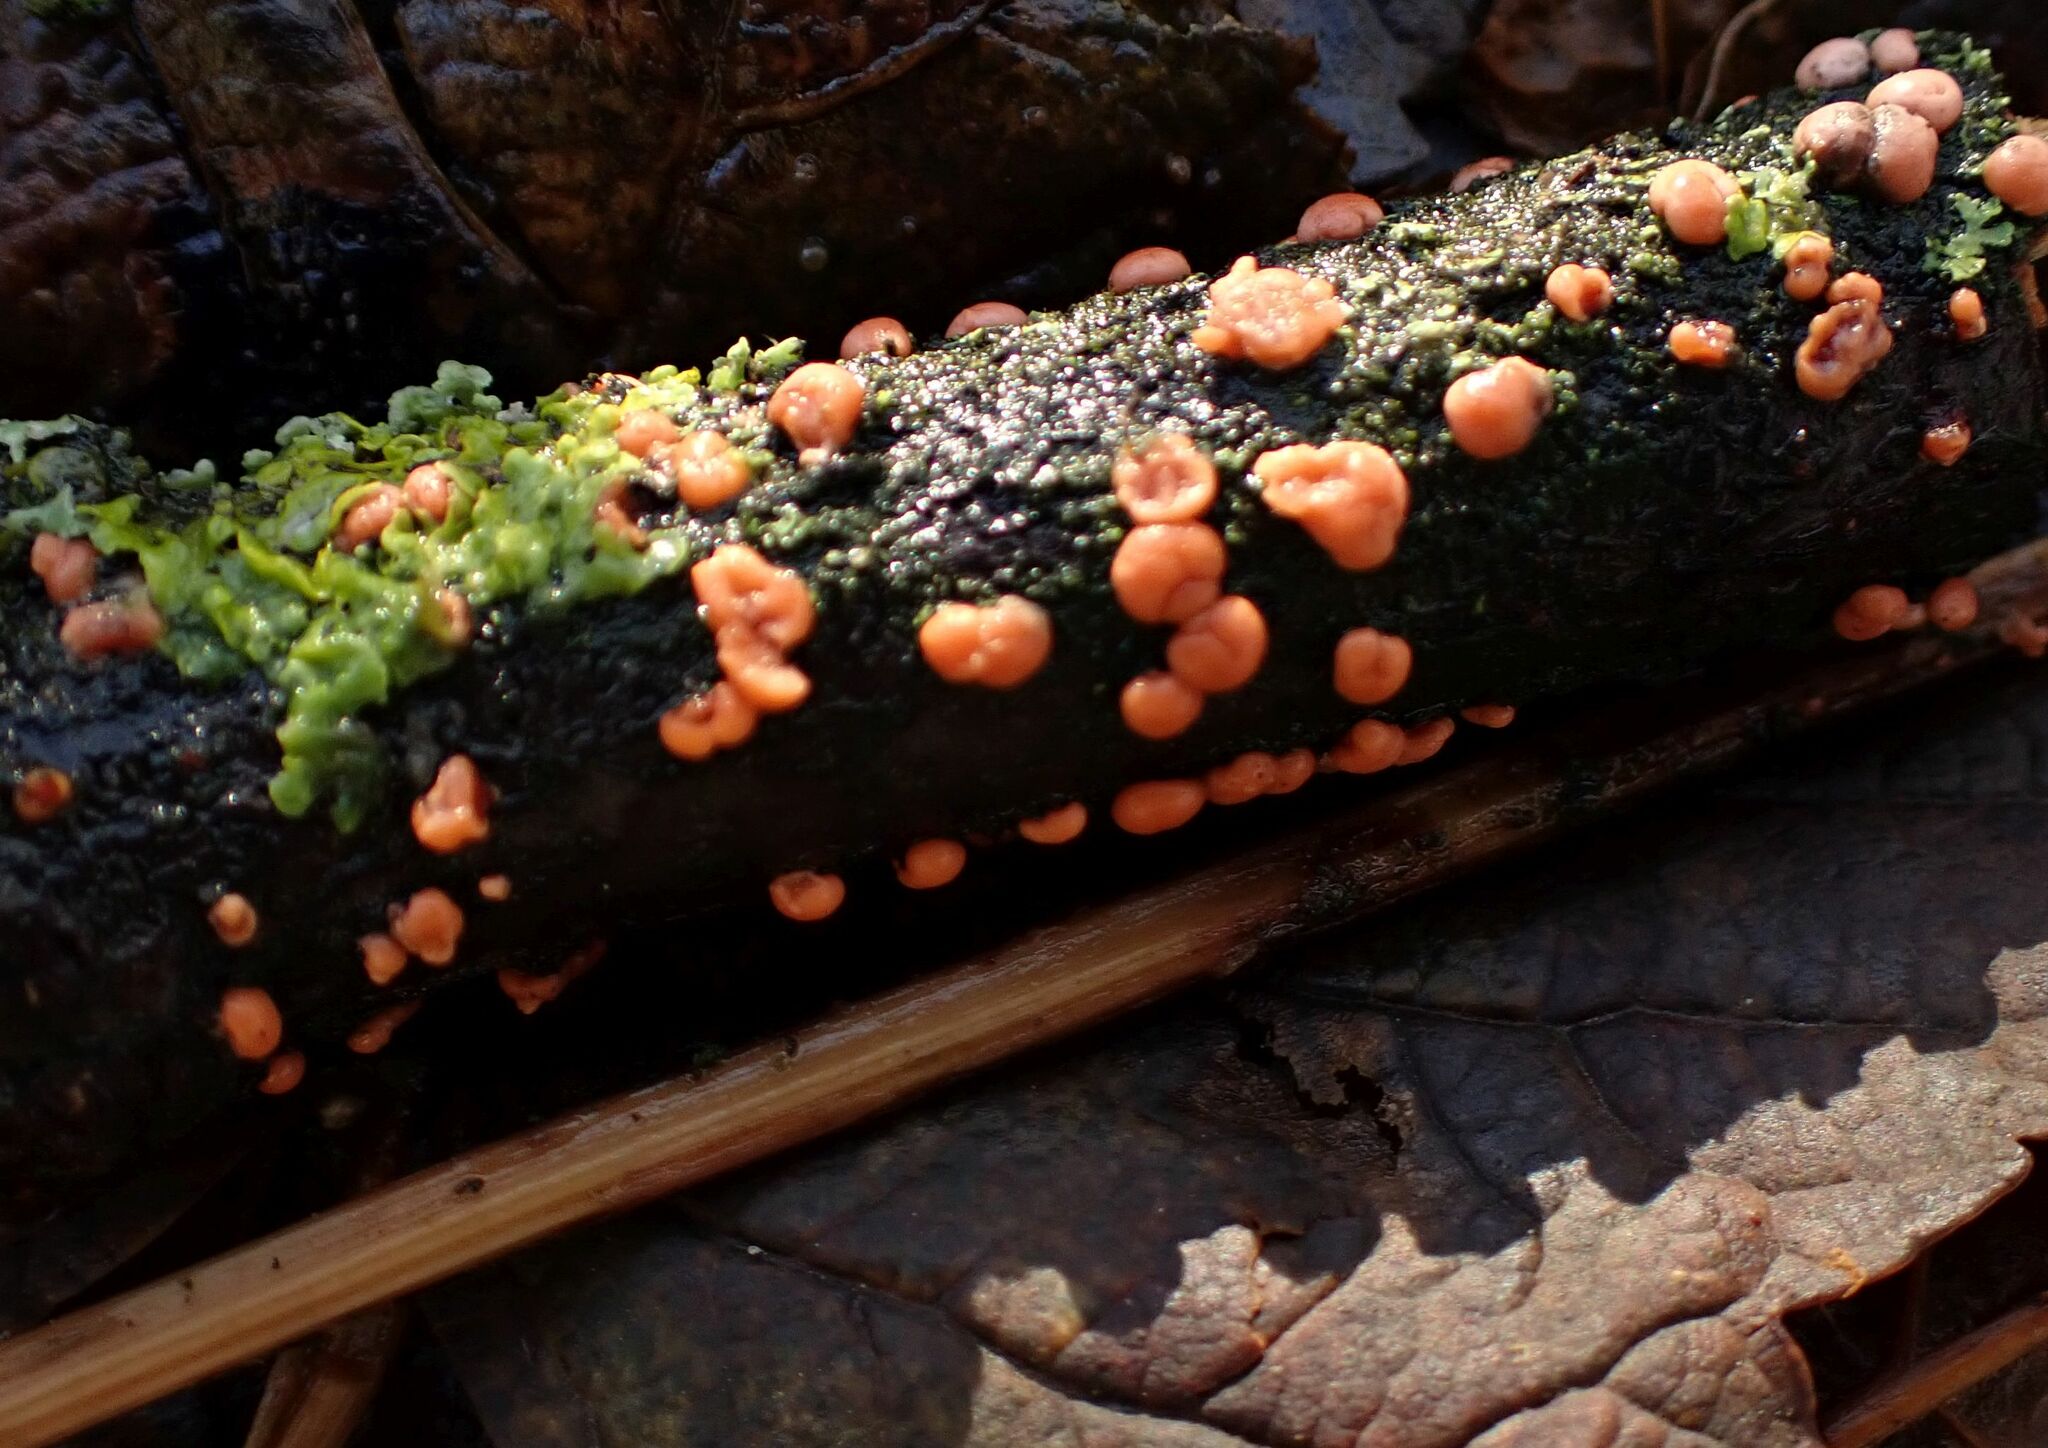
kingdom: Fungi
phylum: Ascomycota
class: Sordariomycetes
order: Hypocreales
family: Nectriaceae
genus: Nectria
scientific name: Nectria cinnabarina
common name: Coral spot
